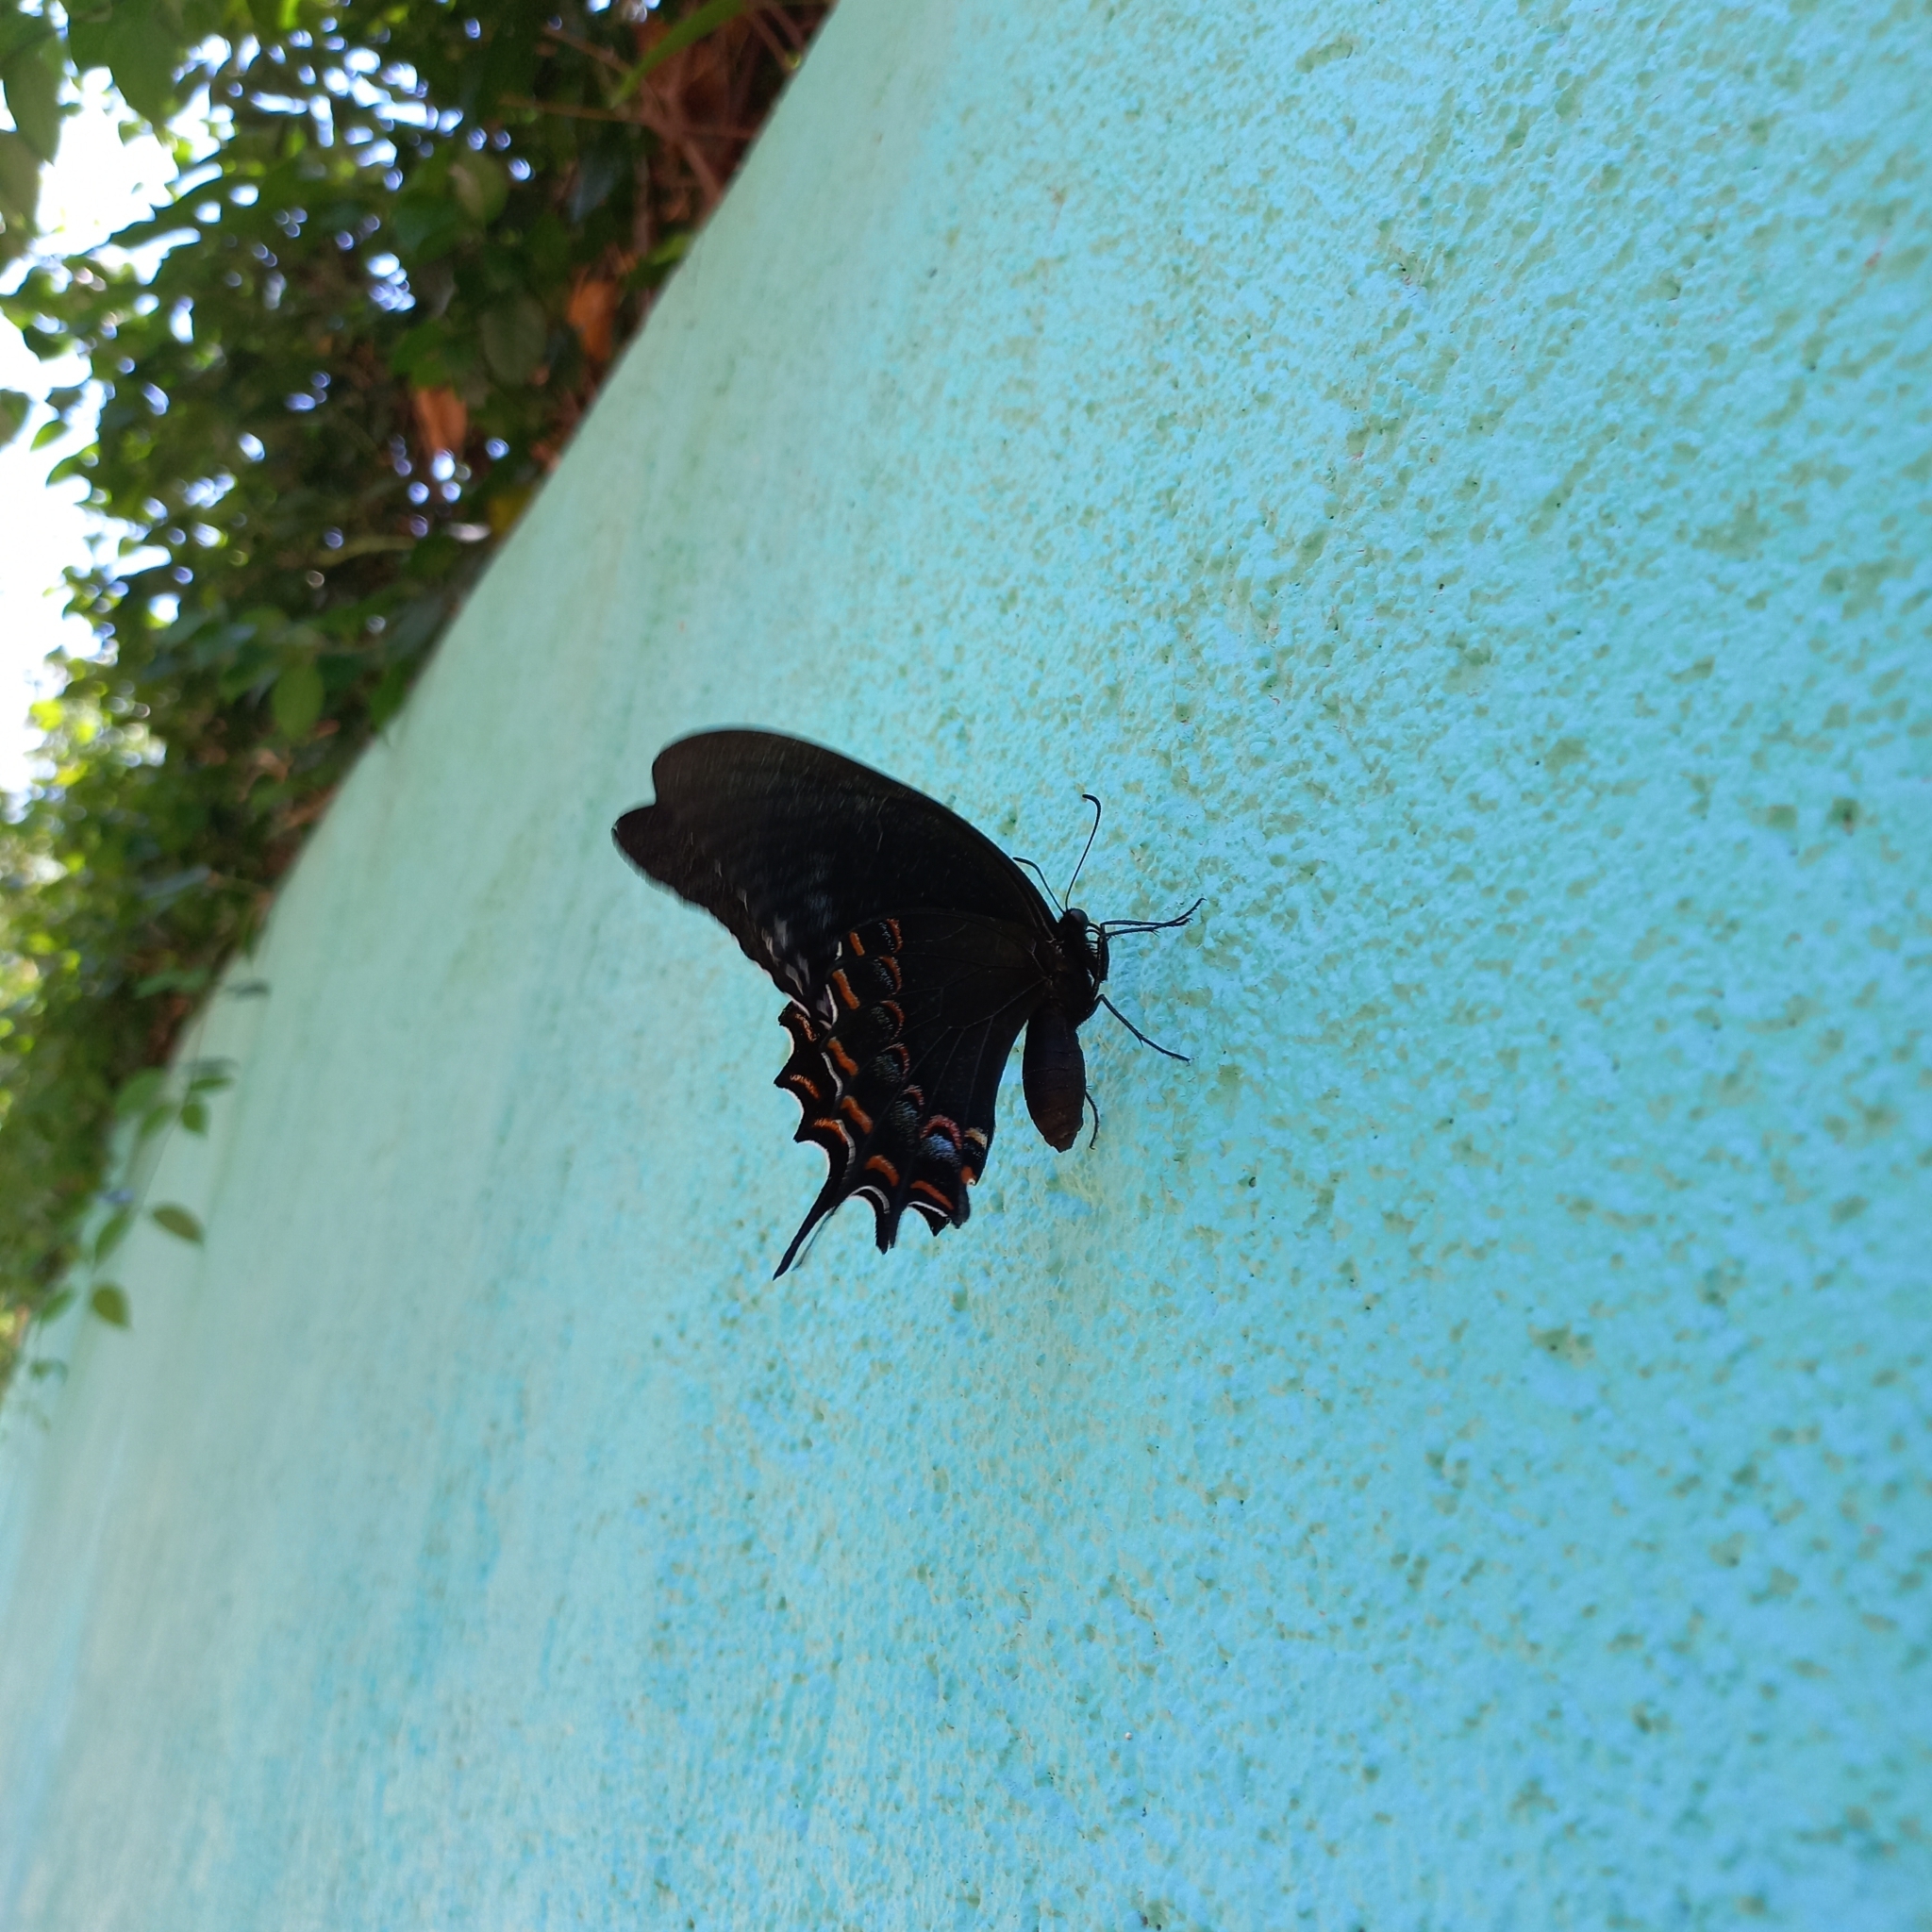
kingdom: Animalia
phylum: Arthropoda
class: Insecta
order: Lepidoptera
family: Papilionidae
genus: Papilio
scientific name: Papilio garamas
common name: Magnificent swallowtail
